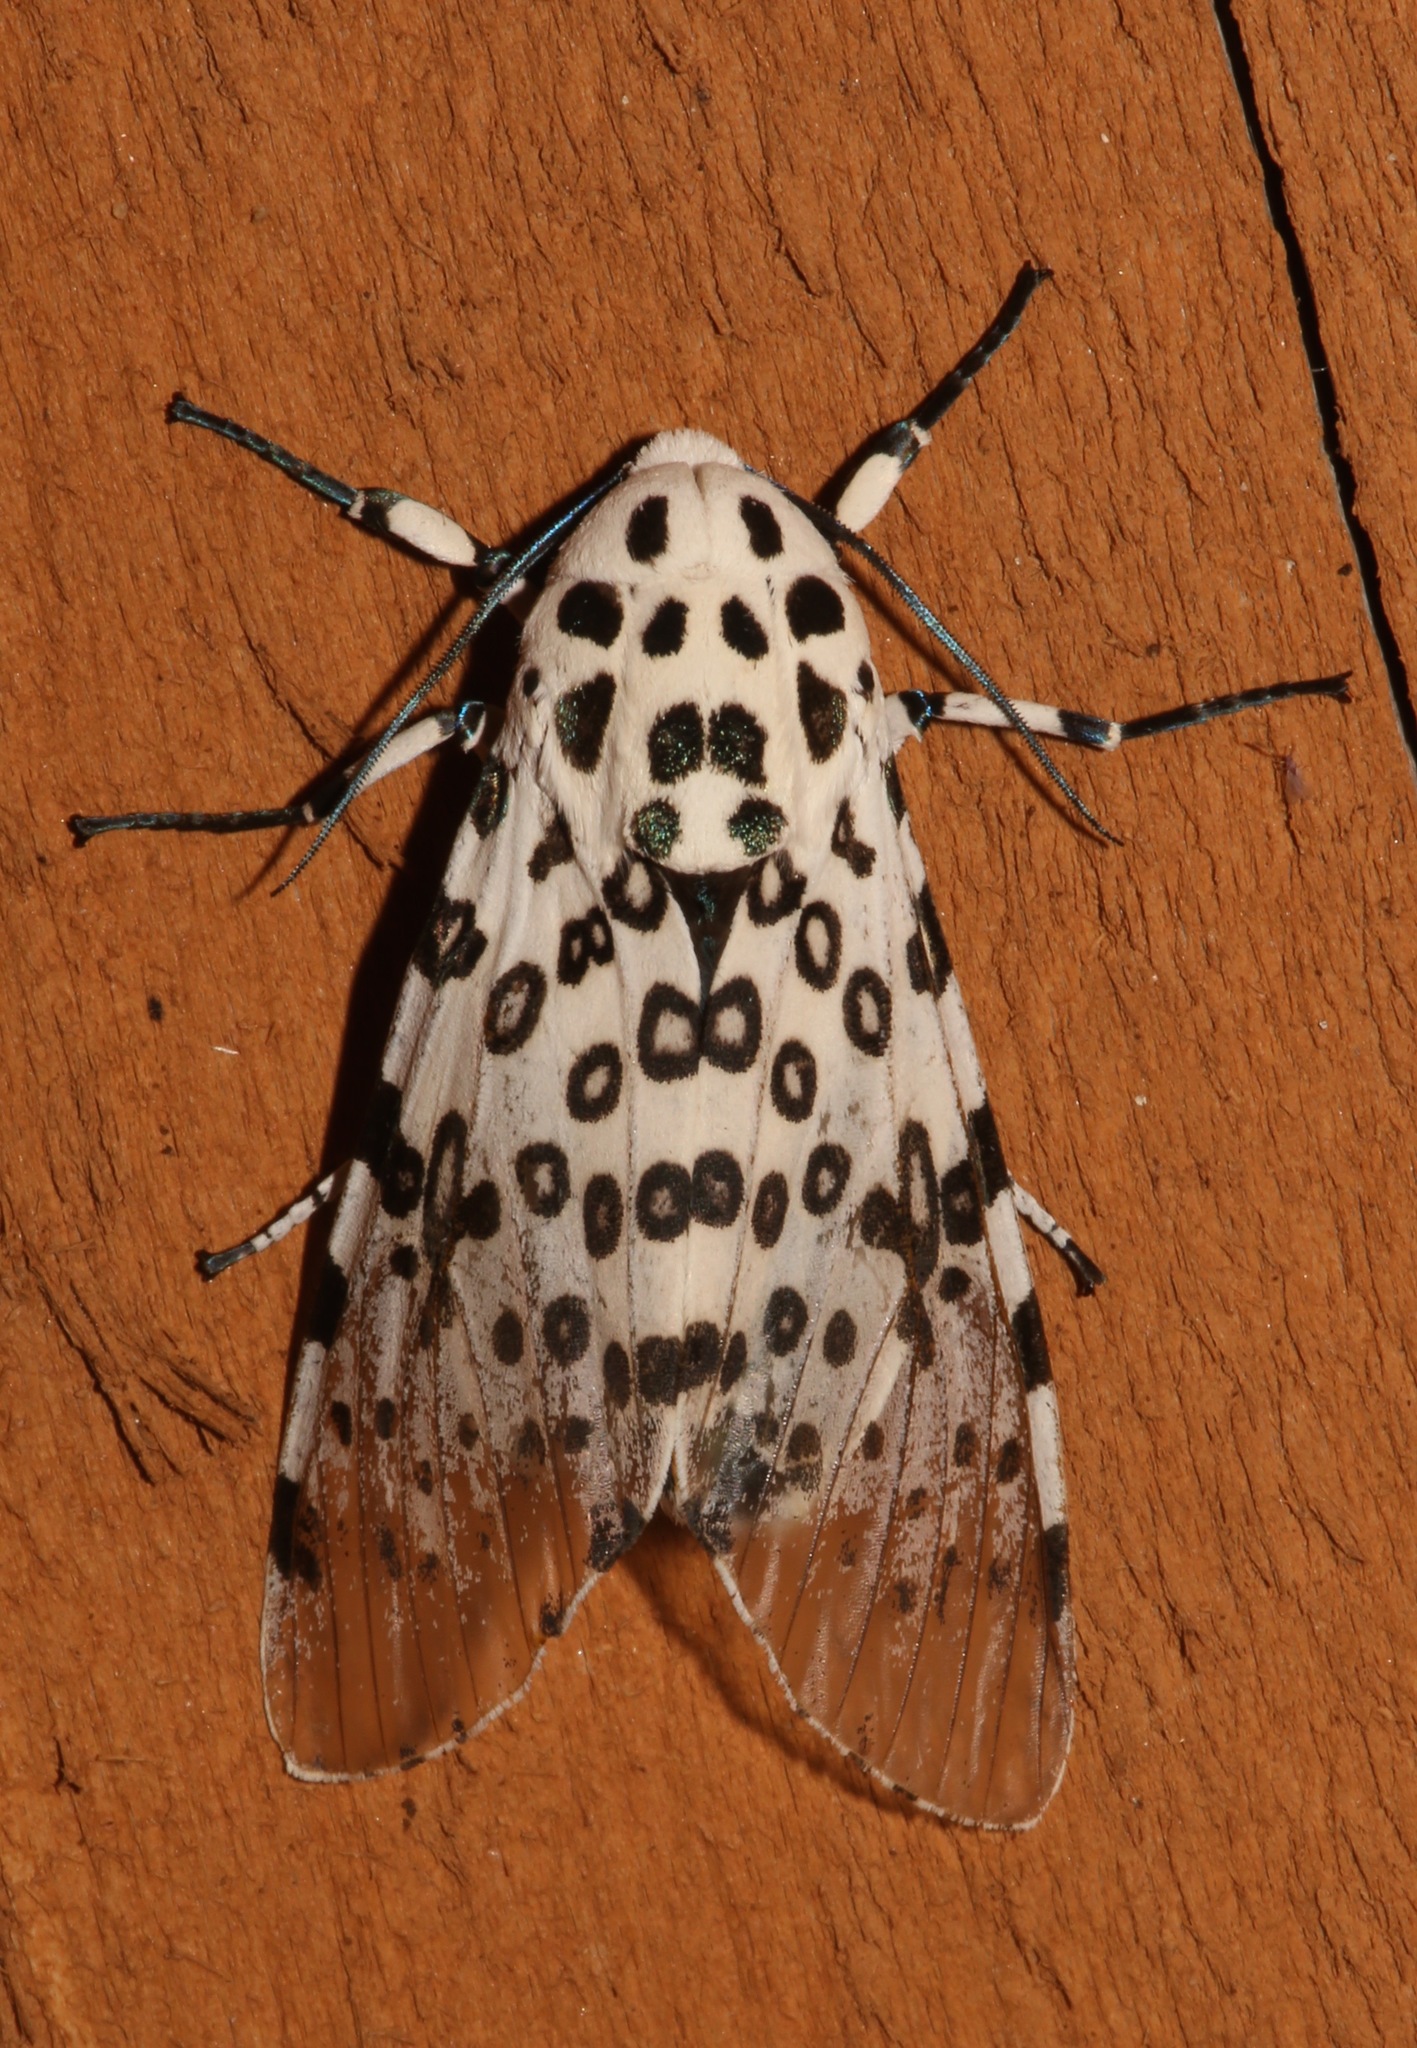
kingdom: Animalia
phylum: Arthropoda
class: Insecta
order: Lepidoptera
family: Erebidae
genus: Hypercompe
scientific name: Hypercompe scribonia
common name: Giant leopard moth
